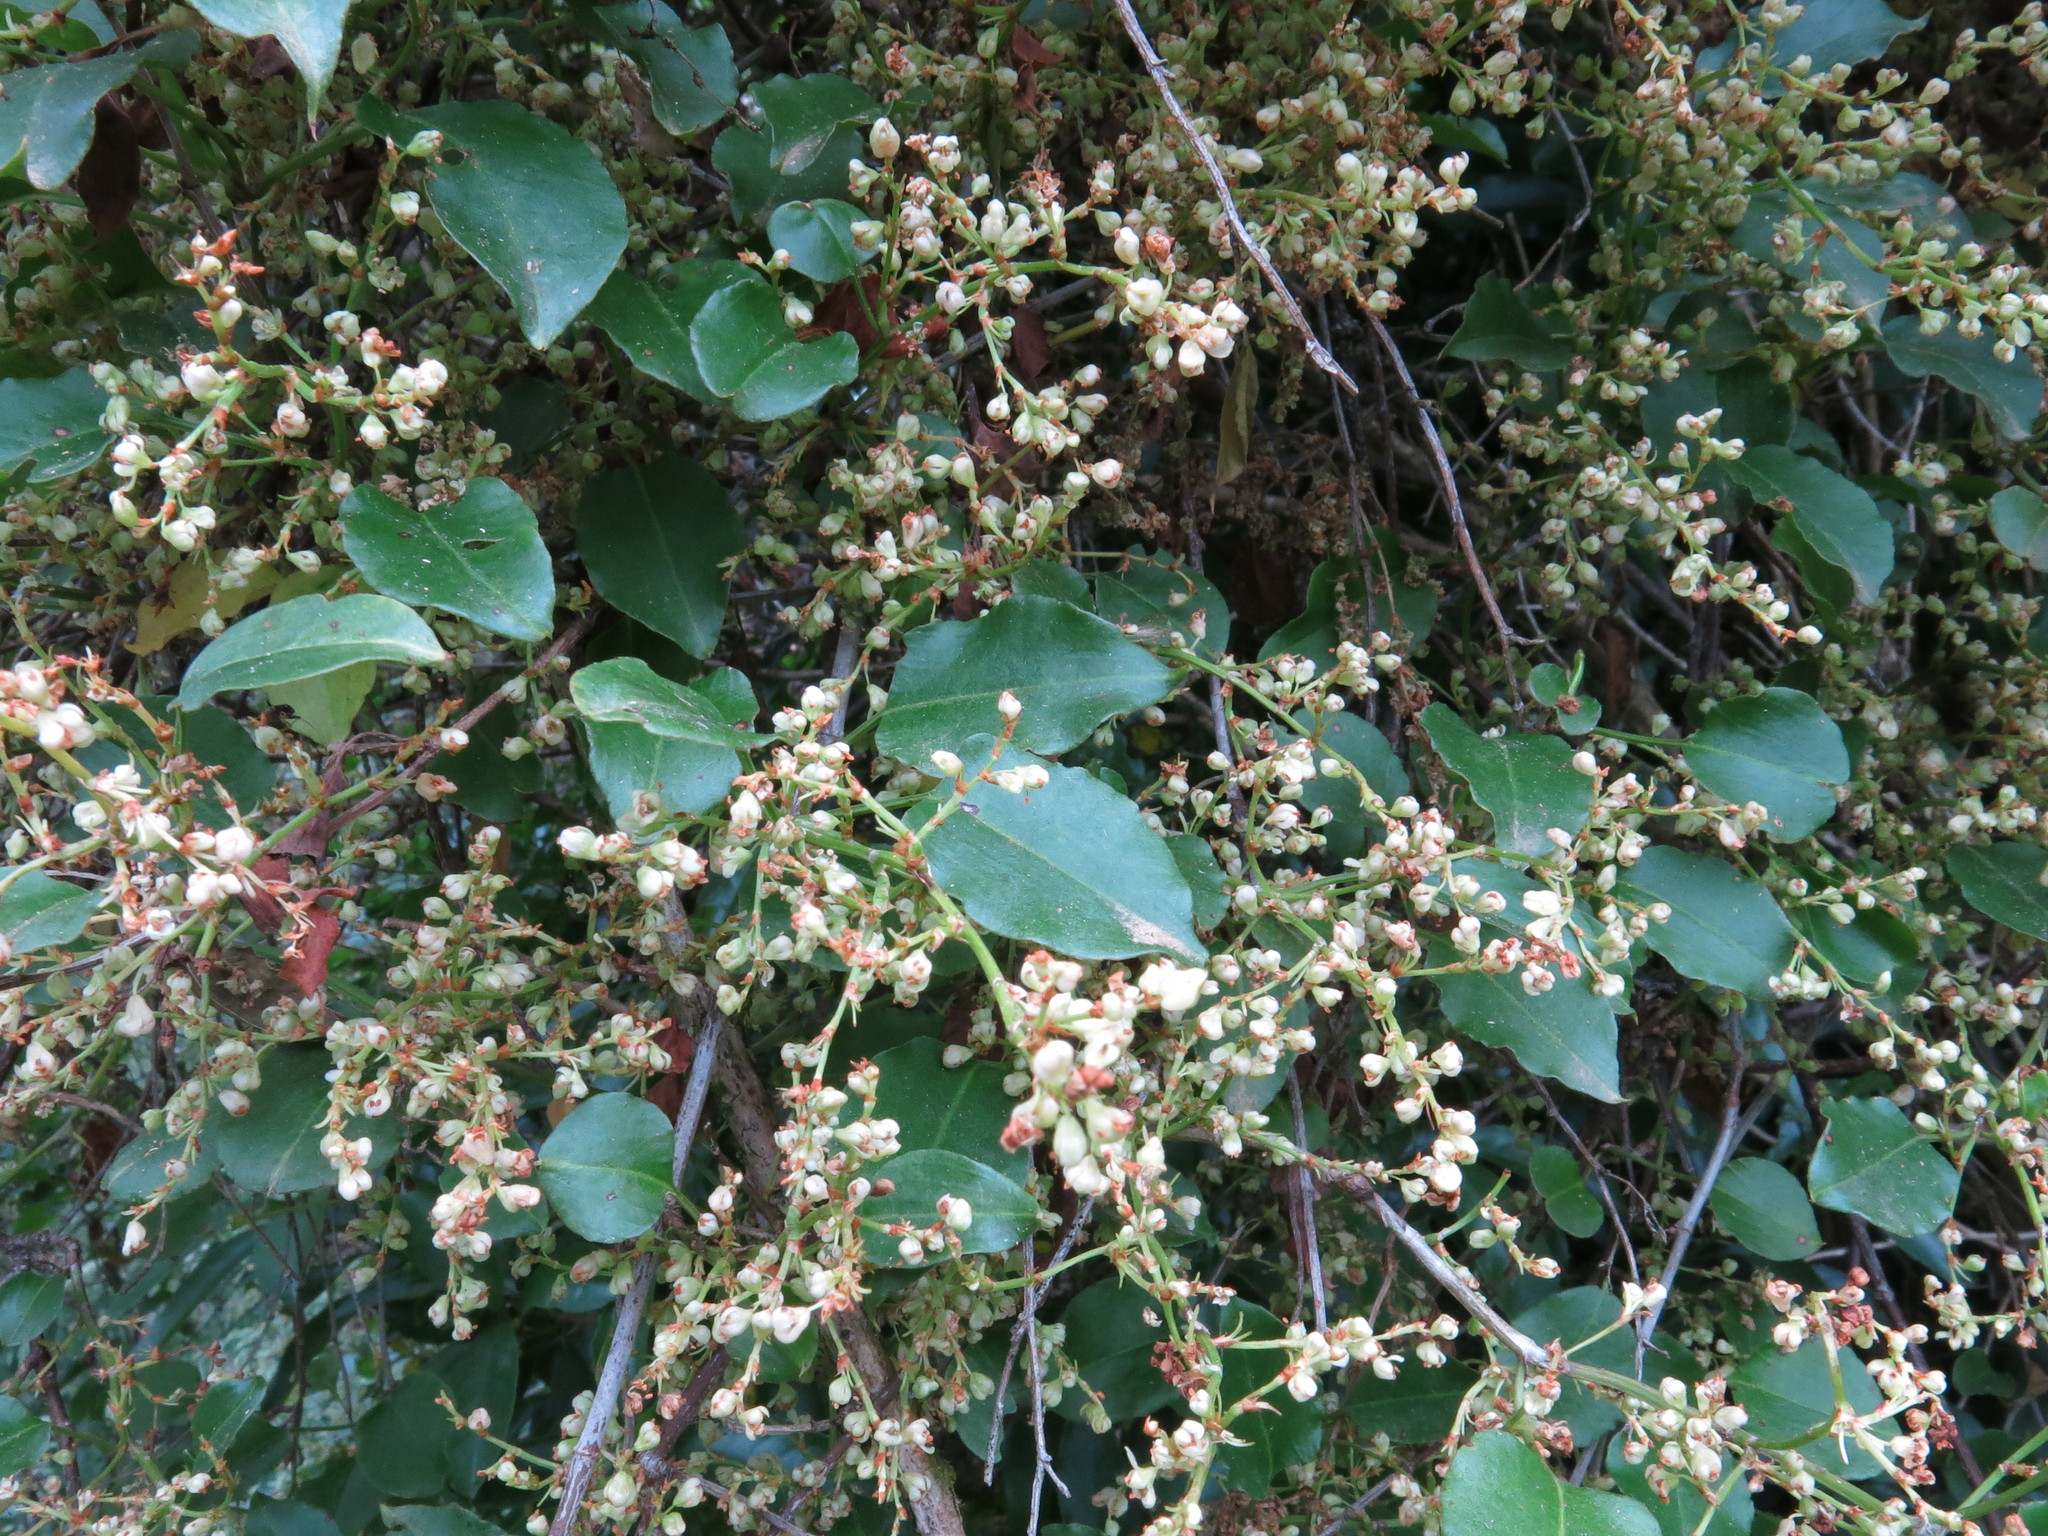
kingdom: Plantae
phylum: Tracheophyta
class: Magnoliopsida
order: Caryophyllales
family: Polygonaceae
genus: Muehlenbeckia
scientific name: Muehlenbeckia australis
